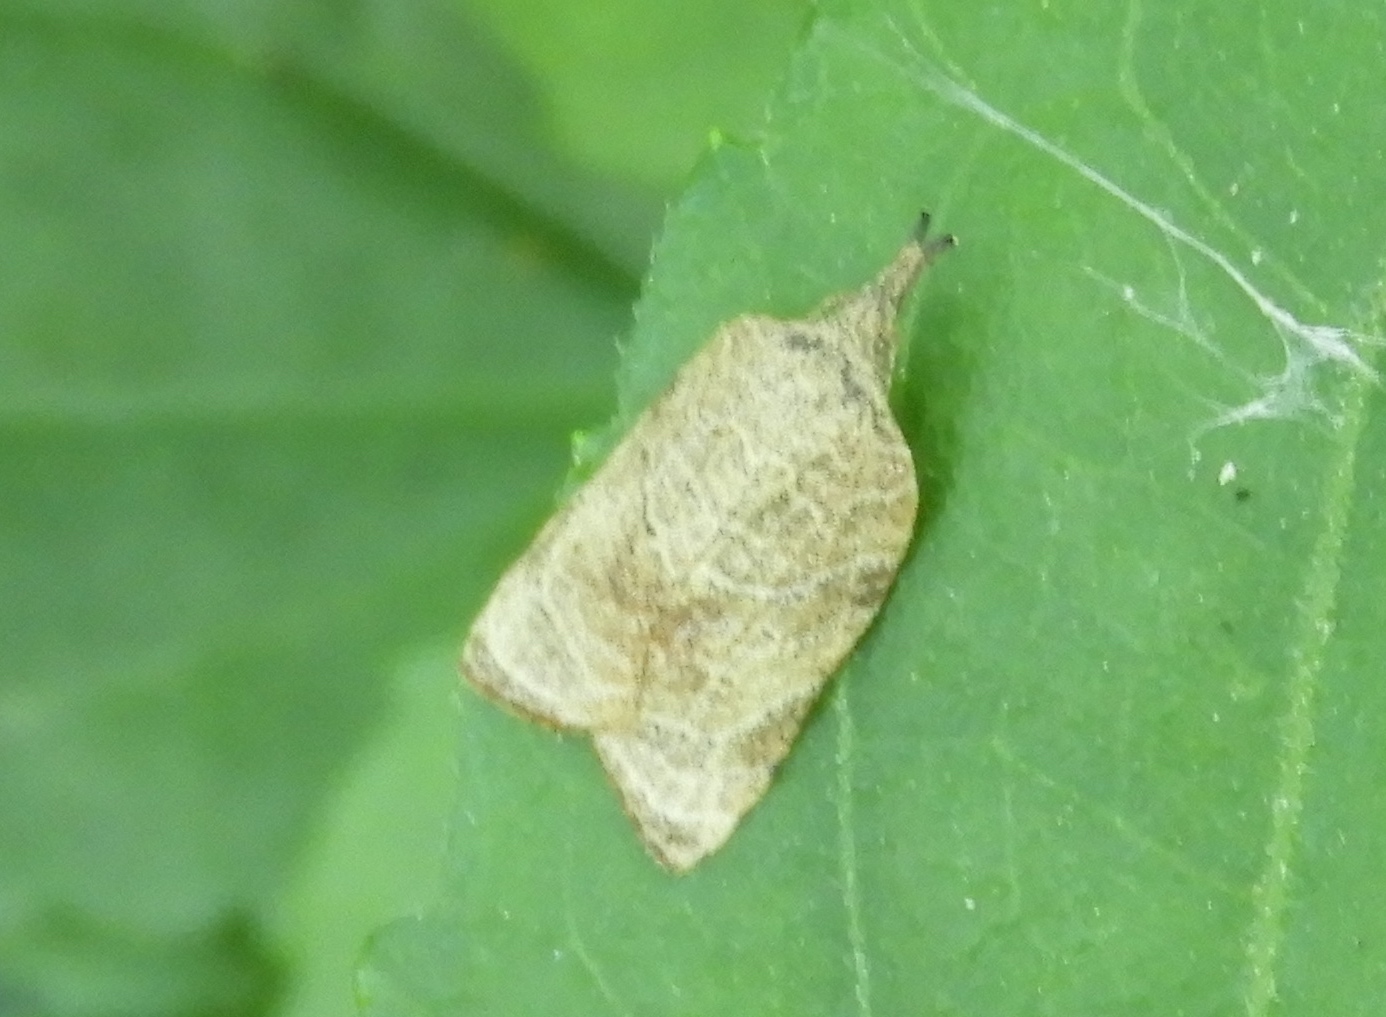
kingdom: Animalia
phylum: Arthropoda
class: Insecta
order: Lepidoptera
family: Tortricidae
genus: Platynota
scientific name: Platynota
